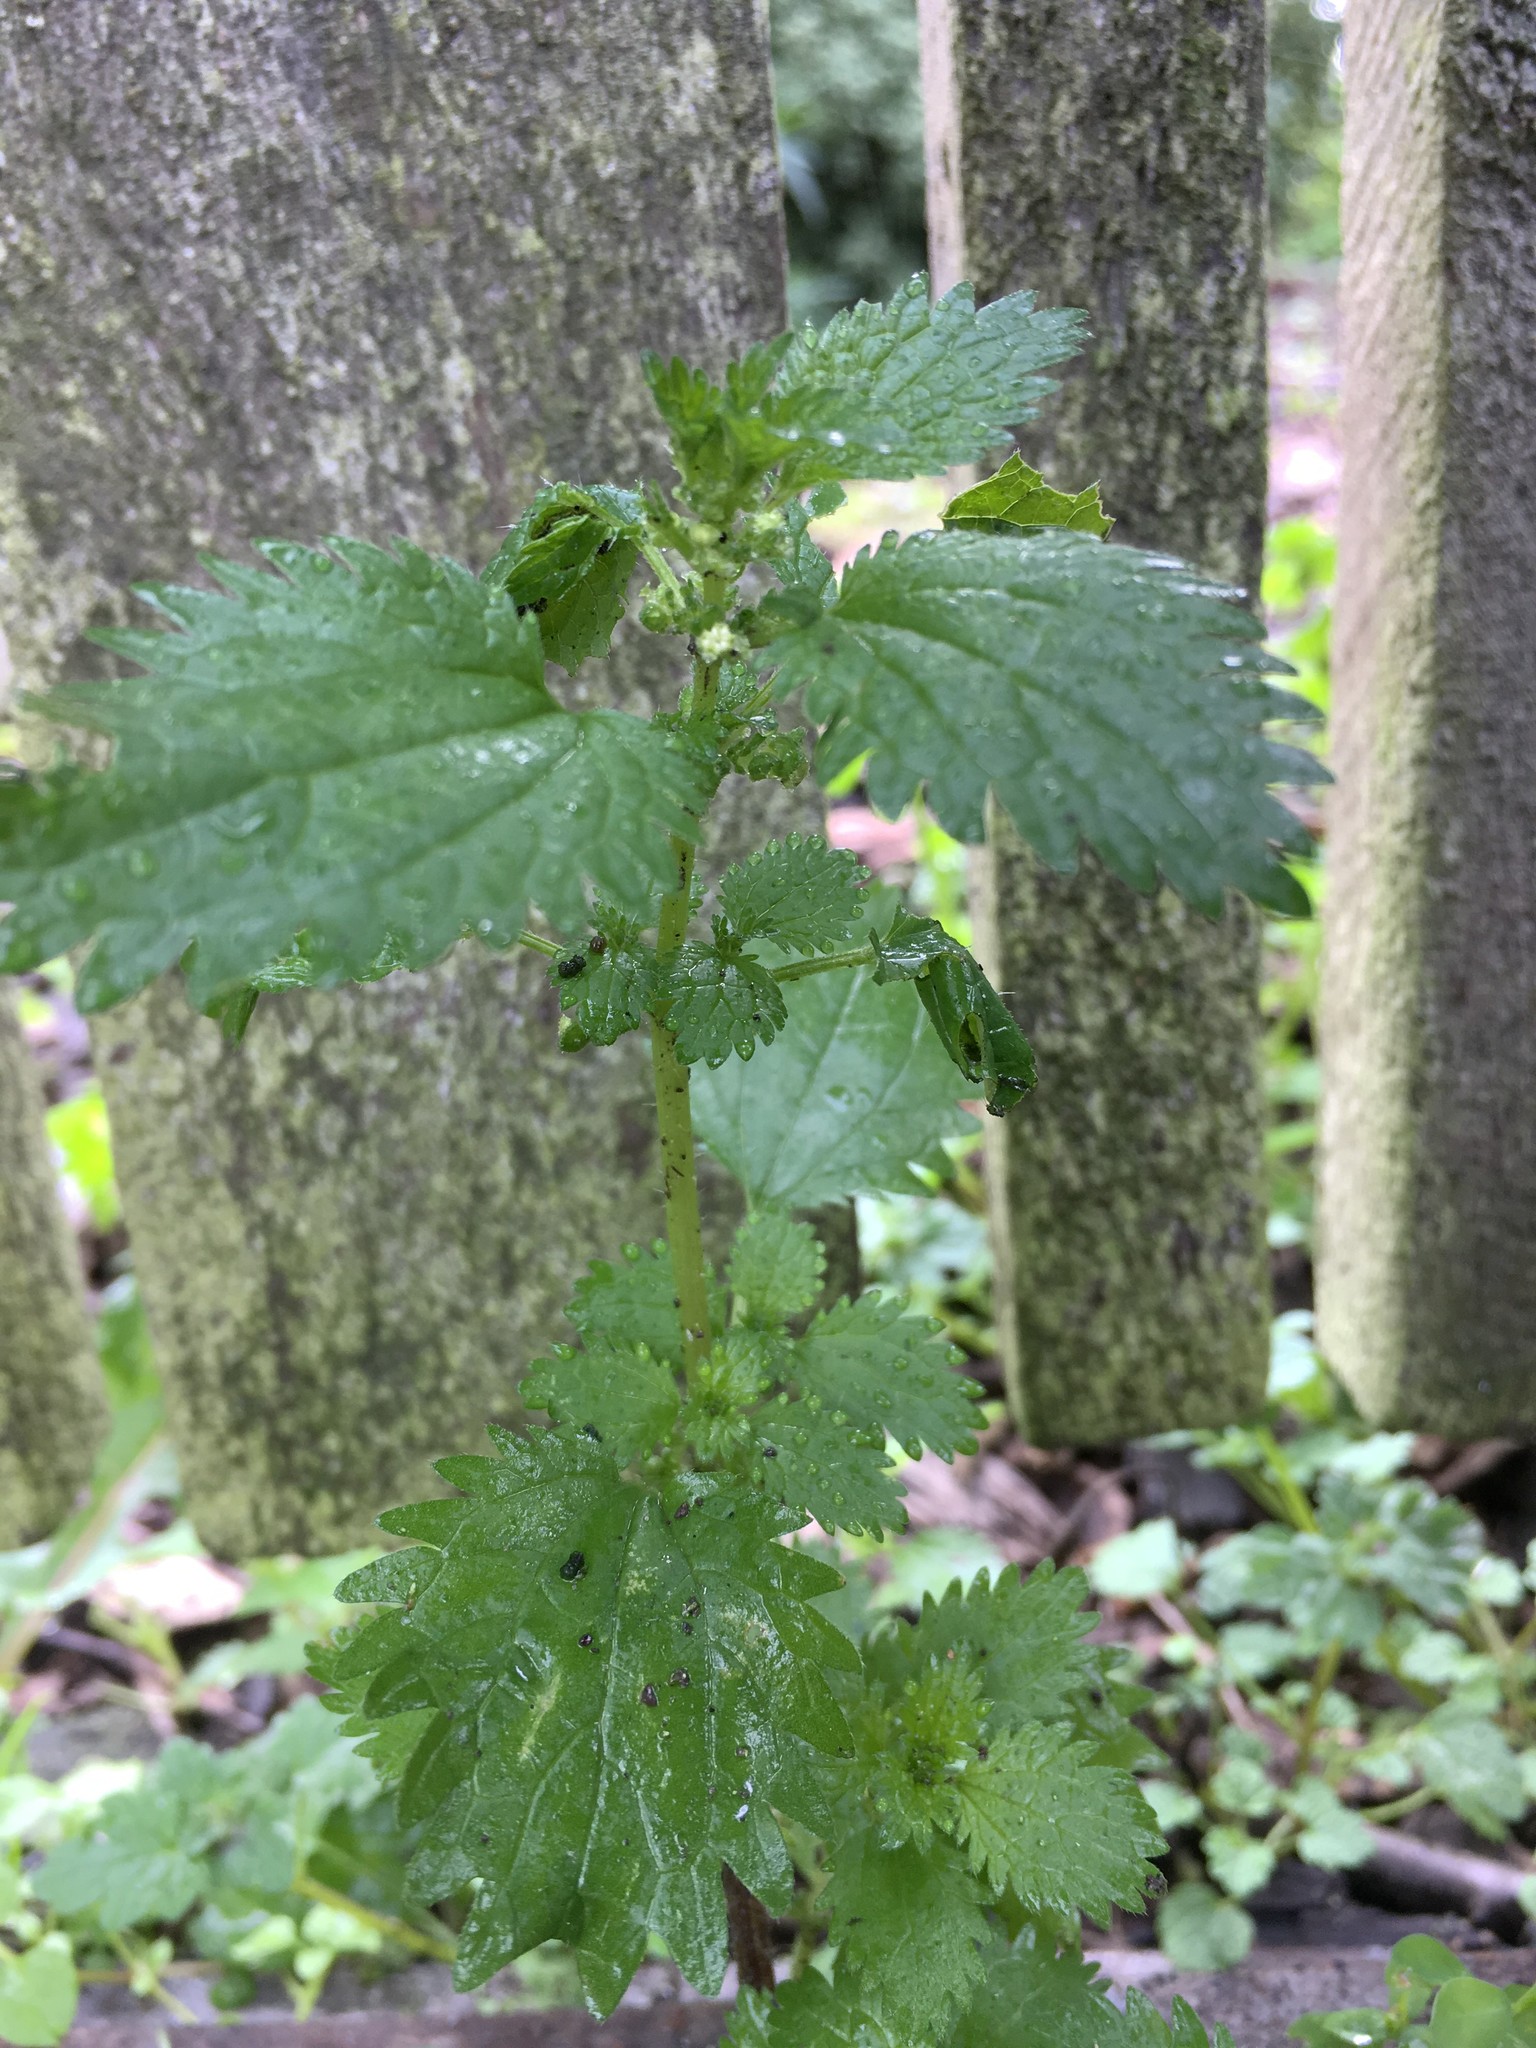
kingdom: Plantae
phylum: Tracheophyta
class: Magnoliopsida
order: Rosales
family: Urticaceae
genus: Urtica
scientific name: Urtica urens
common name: Dwarf nettle
